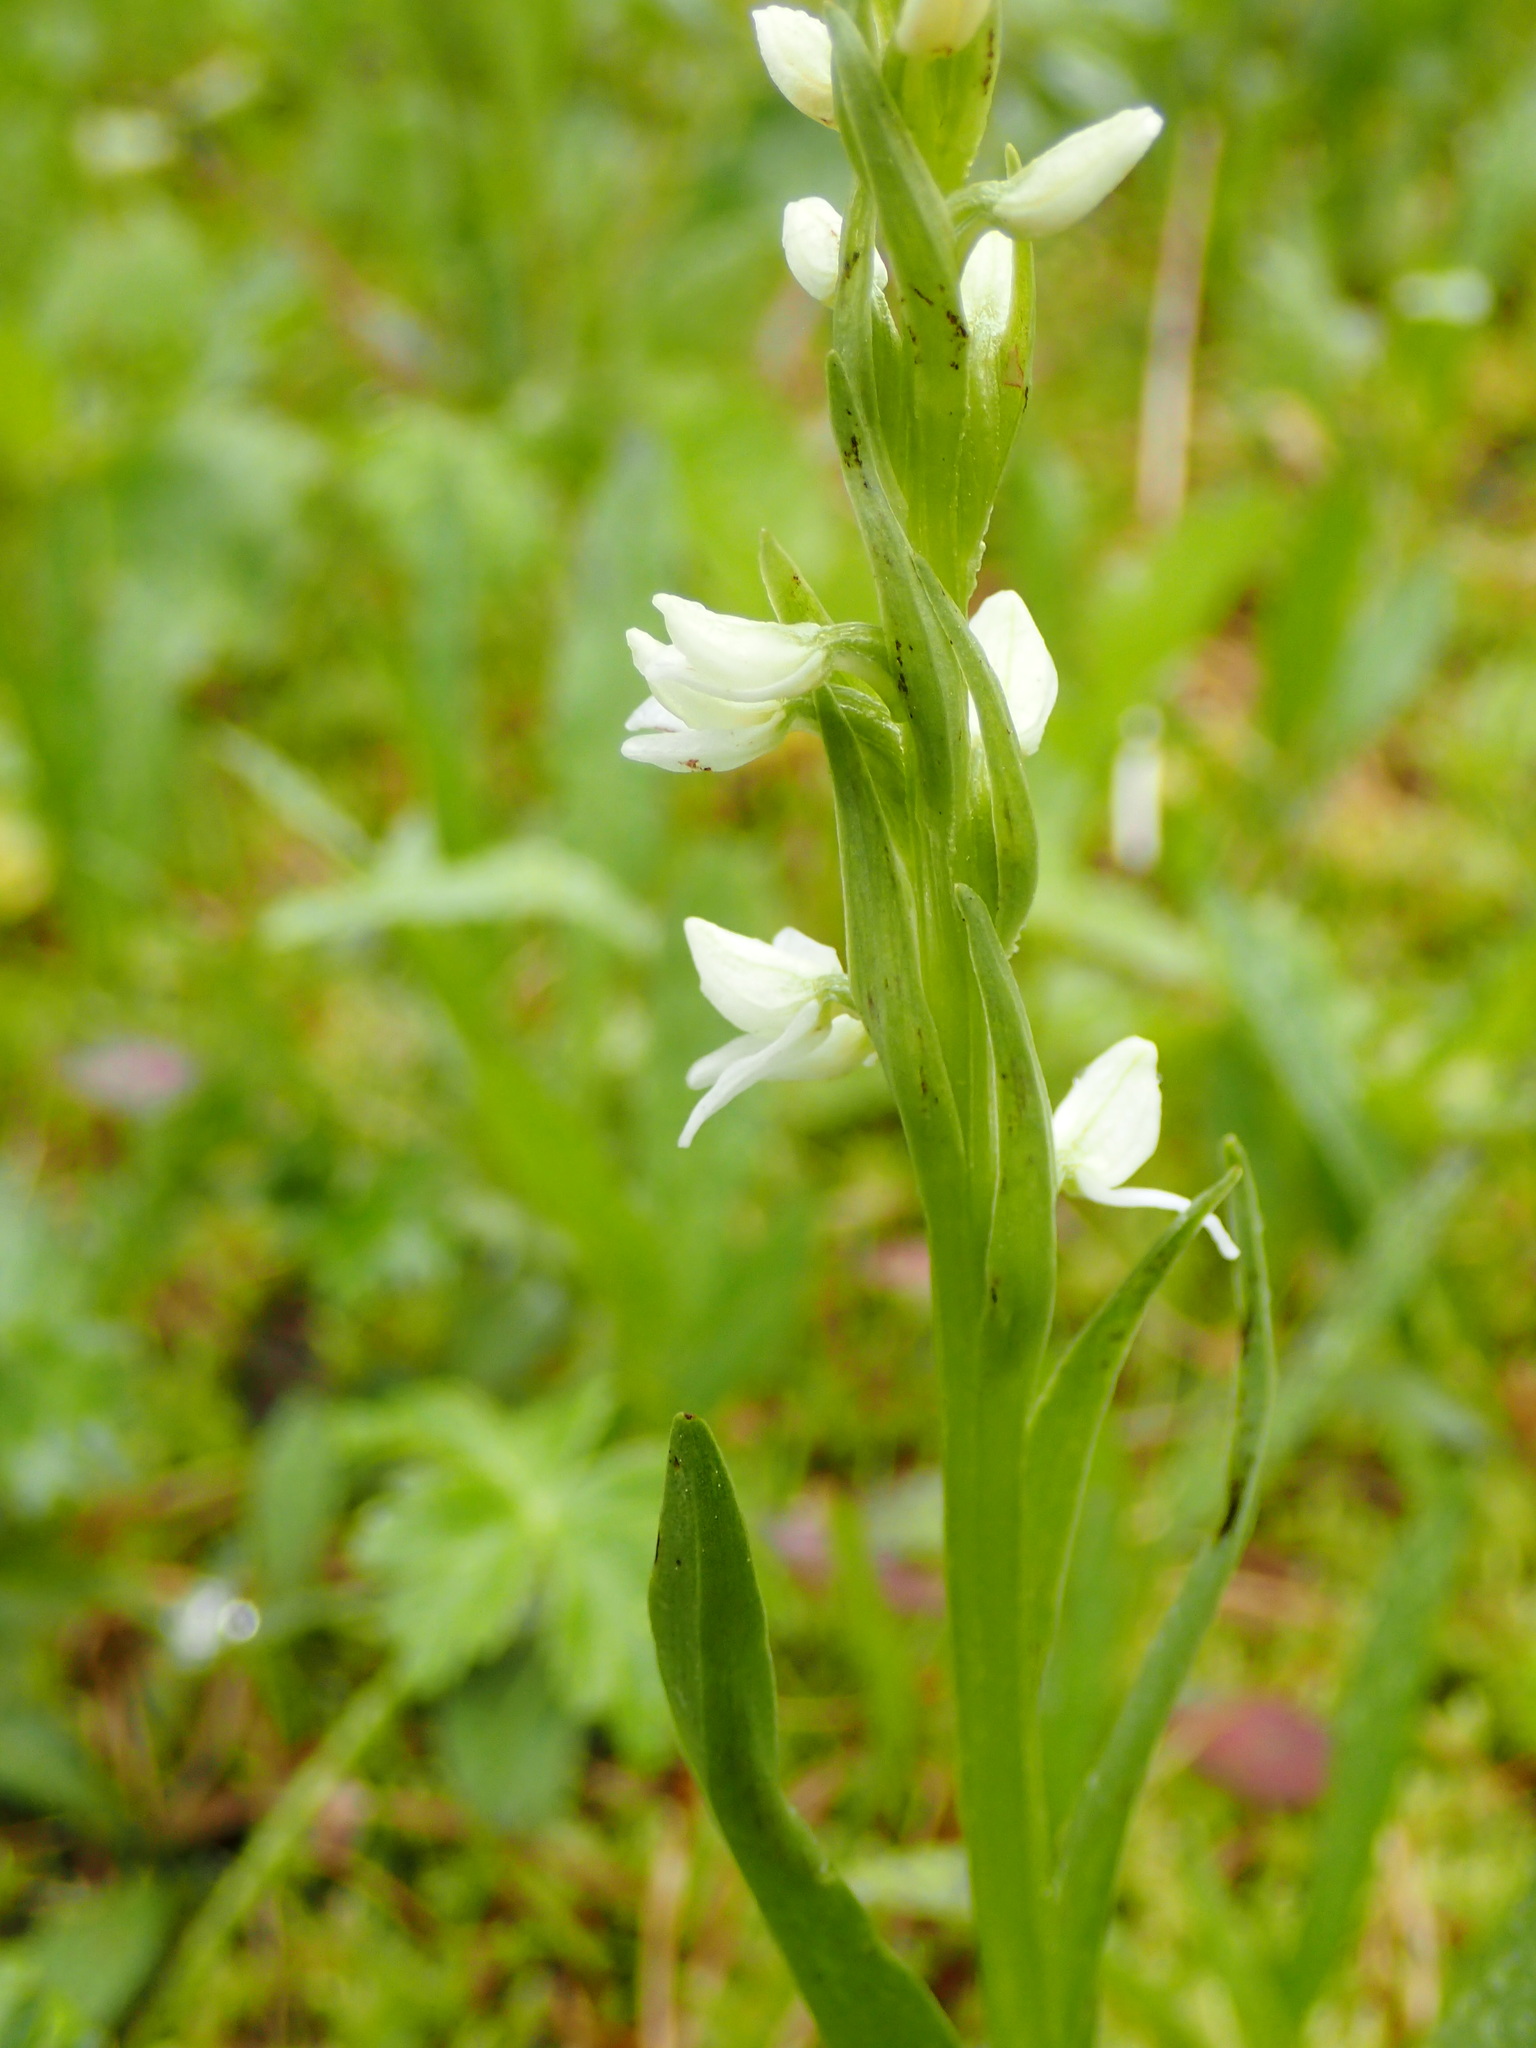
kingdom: Plantae
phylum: Tracheophyta
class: Liliopsida
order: Asparagales
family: Orchidaceae
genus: Platanthera
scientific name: Platanthera dilatata
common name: Bog candles
